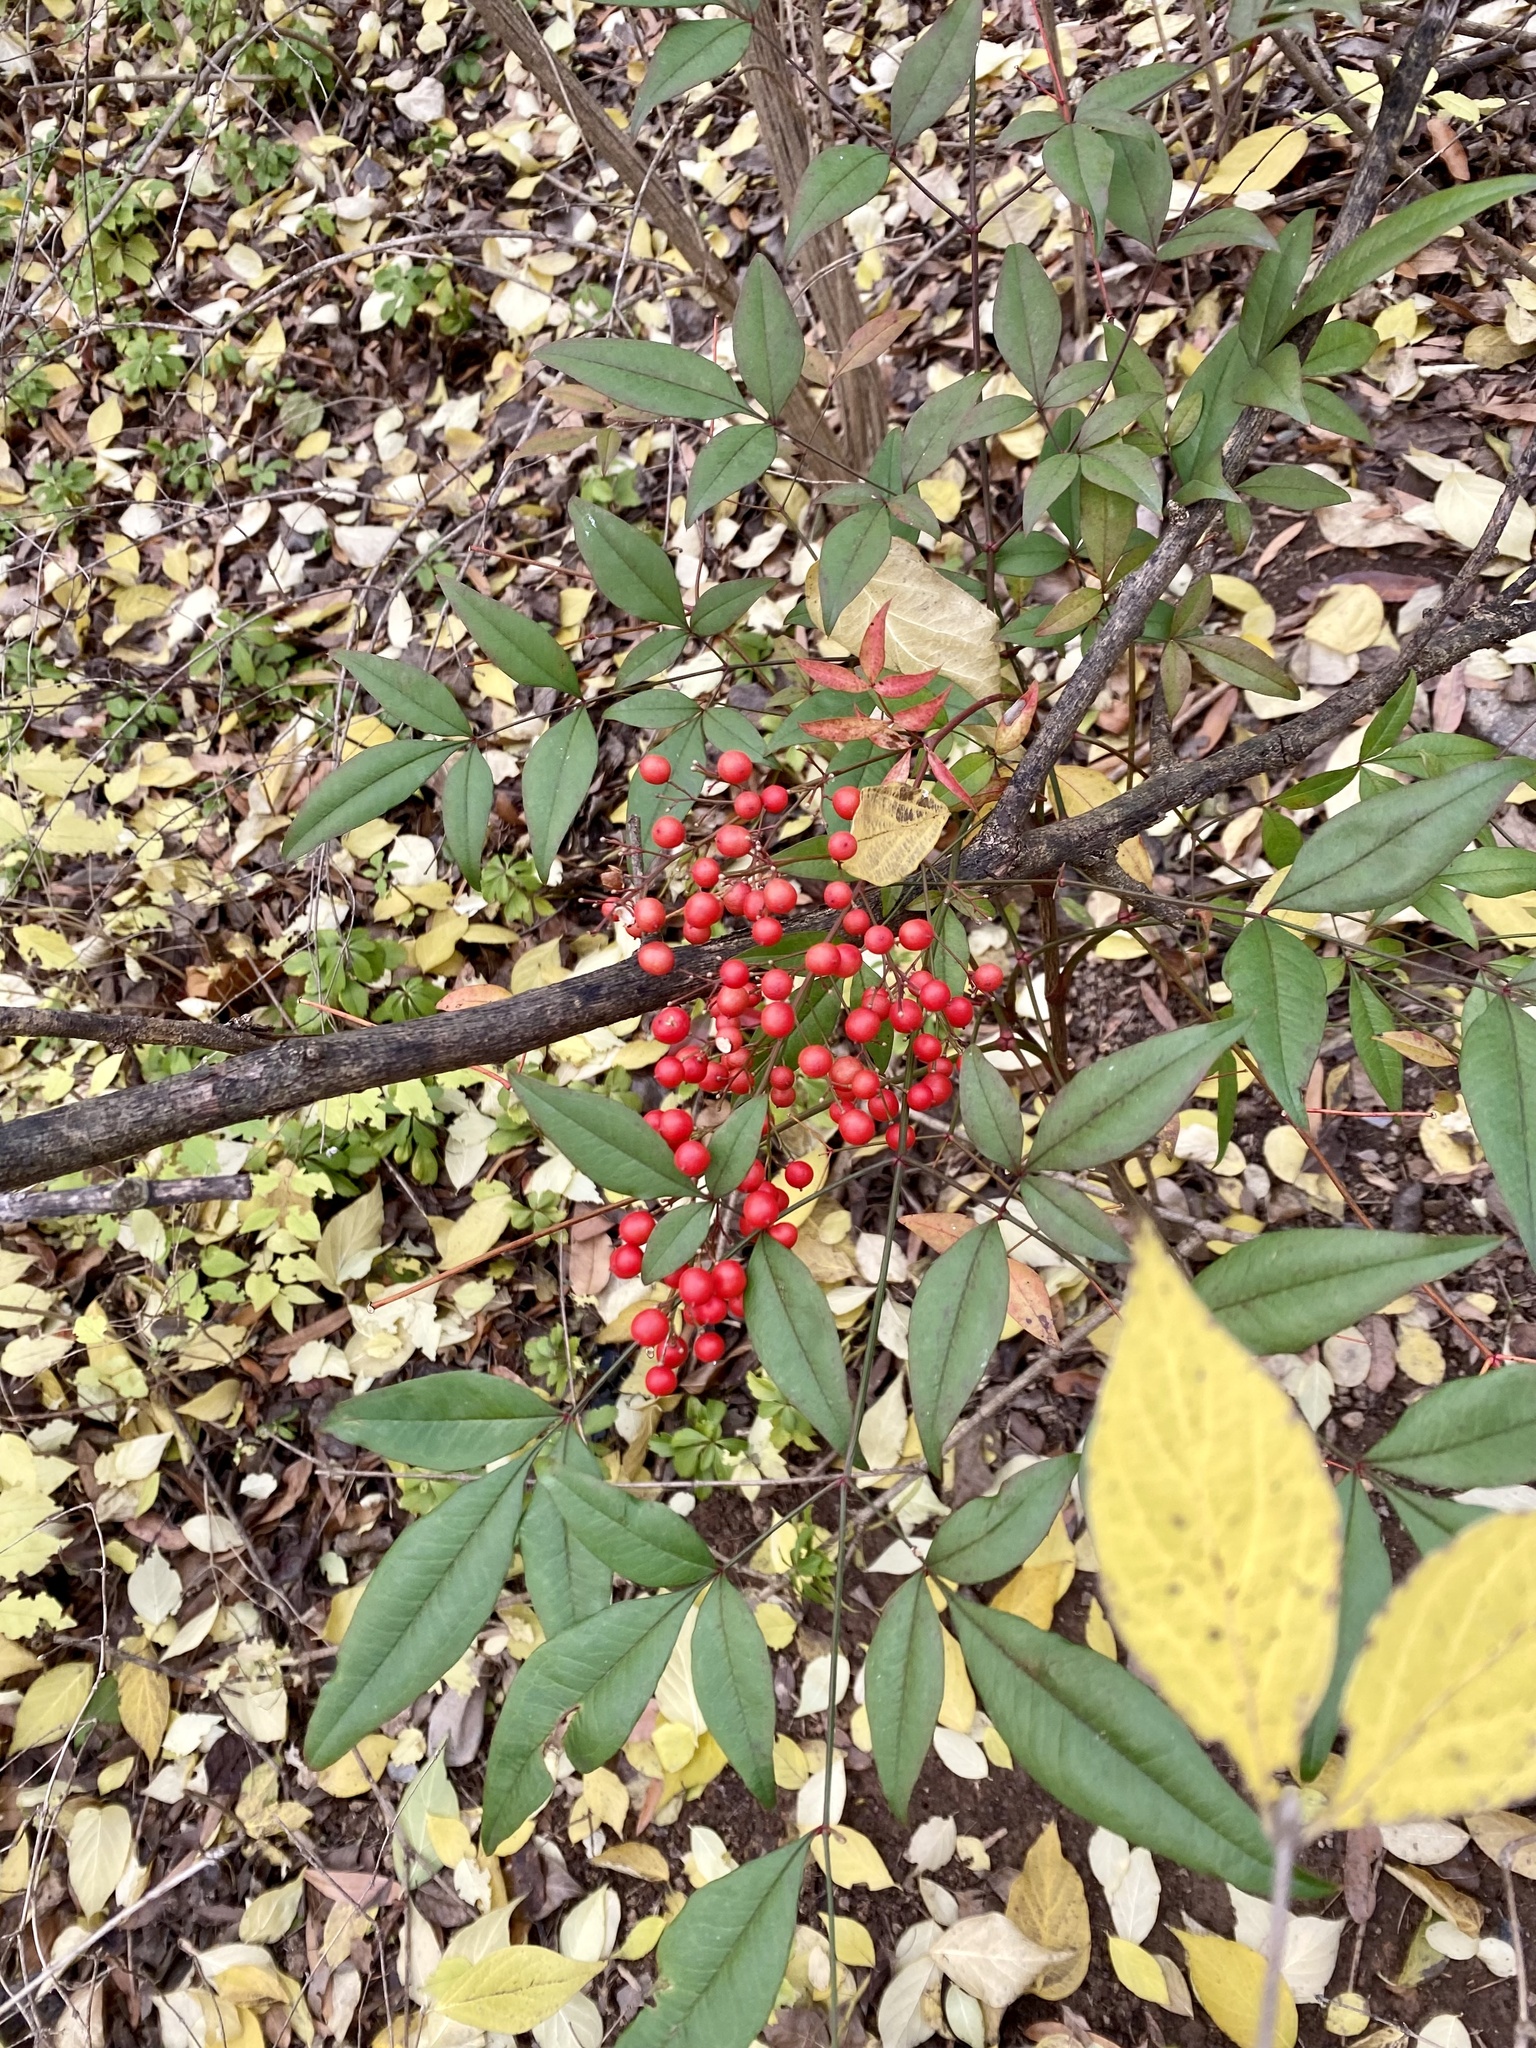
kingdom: Plantae
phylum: Tracheophyta
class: Magnoliopsida
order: Ranunculales
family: Berberidaceae
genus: Nandina
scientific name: Nandina domestica
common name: Sacred bamboo
